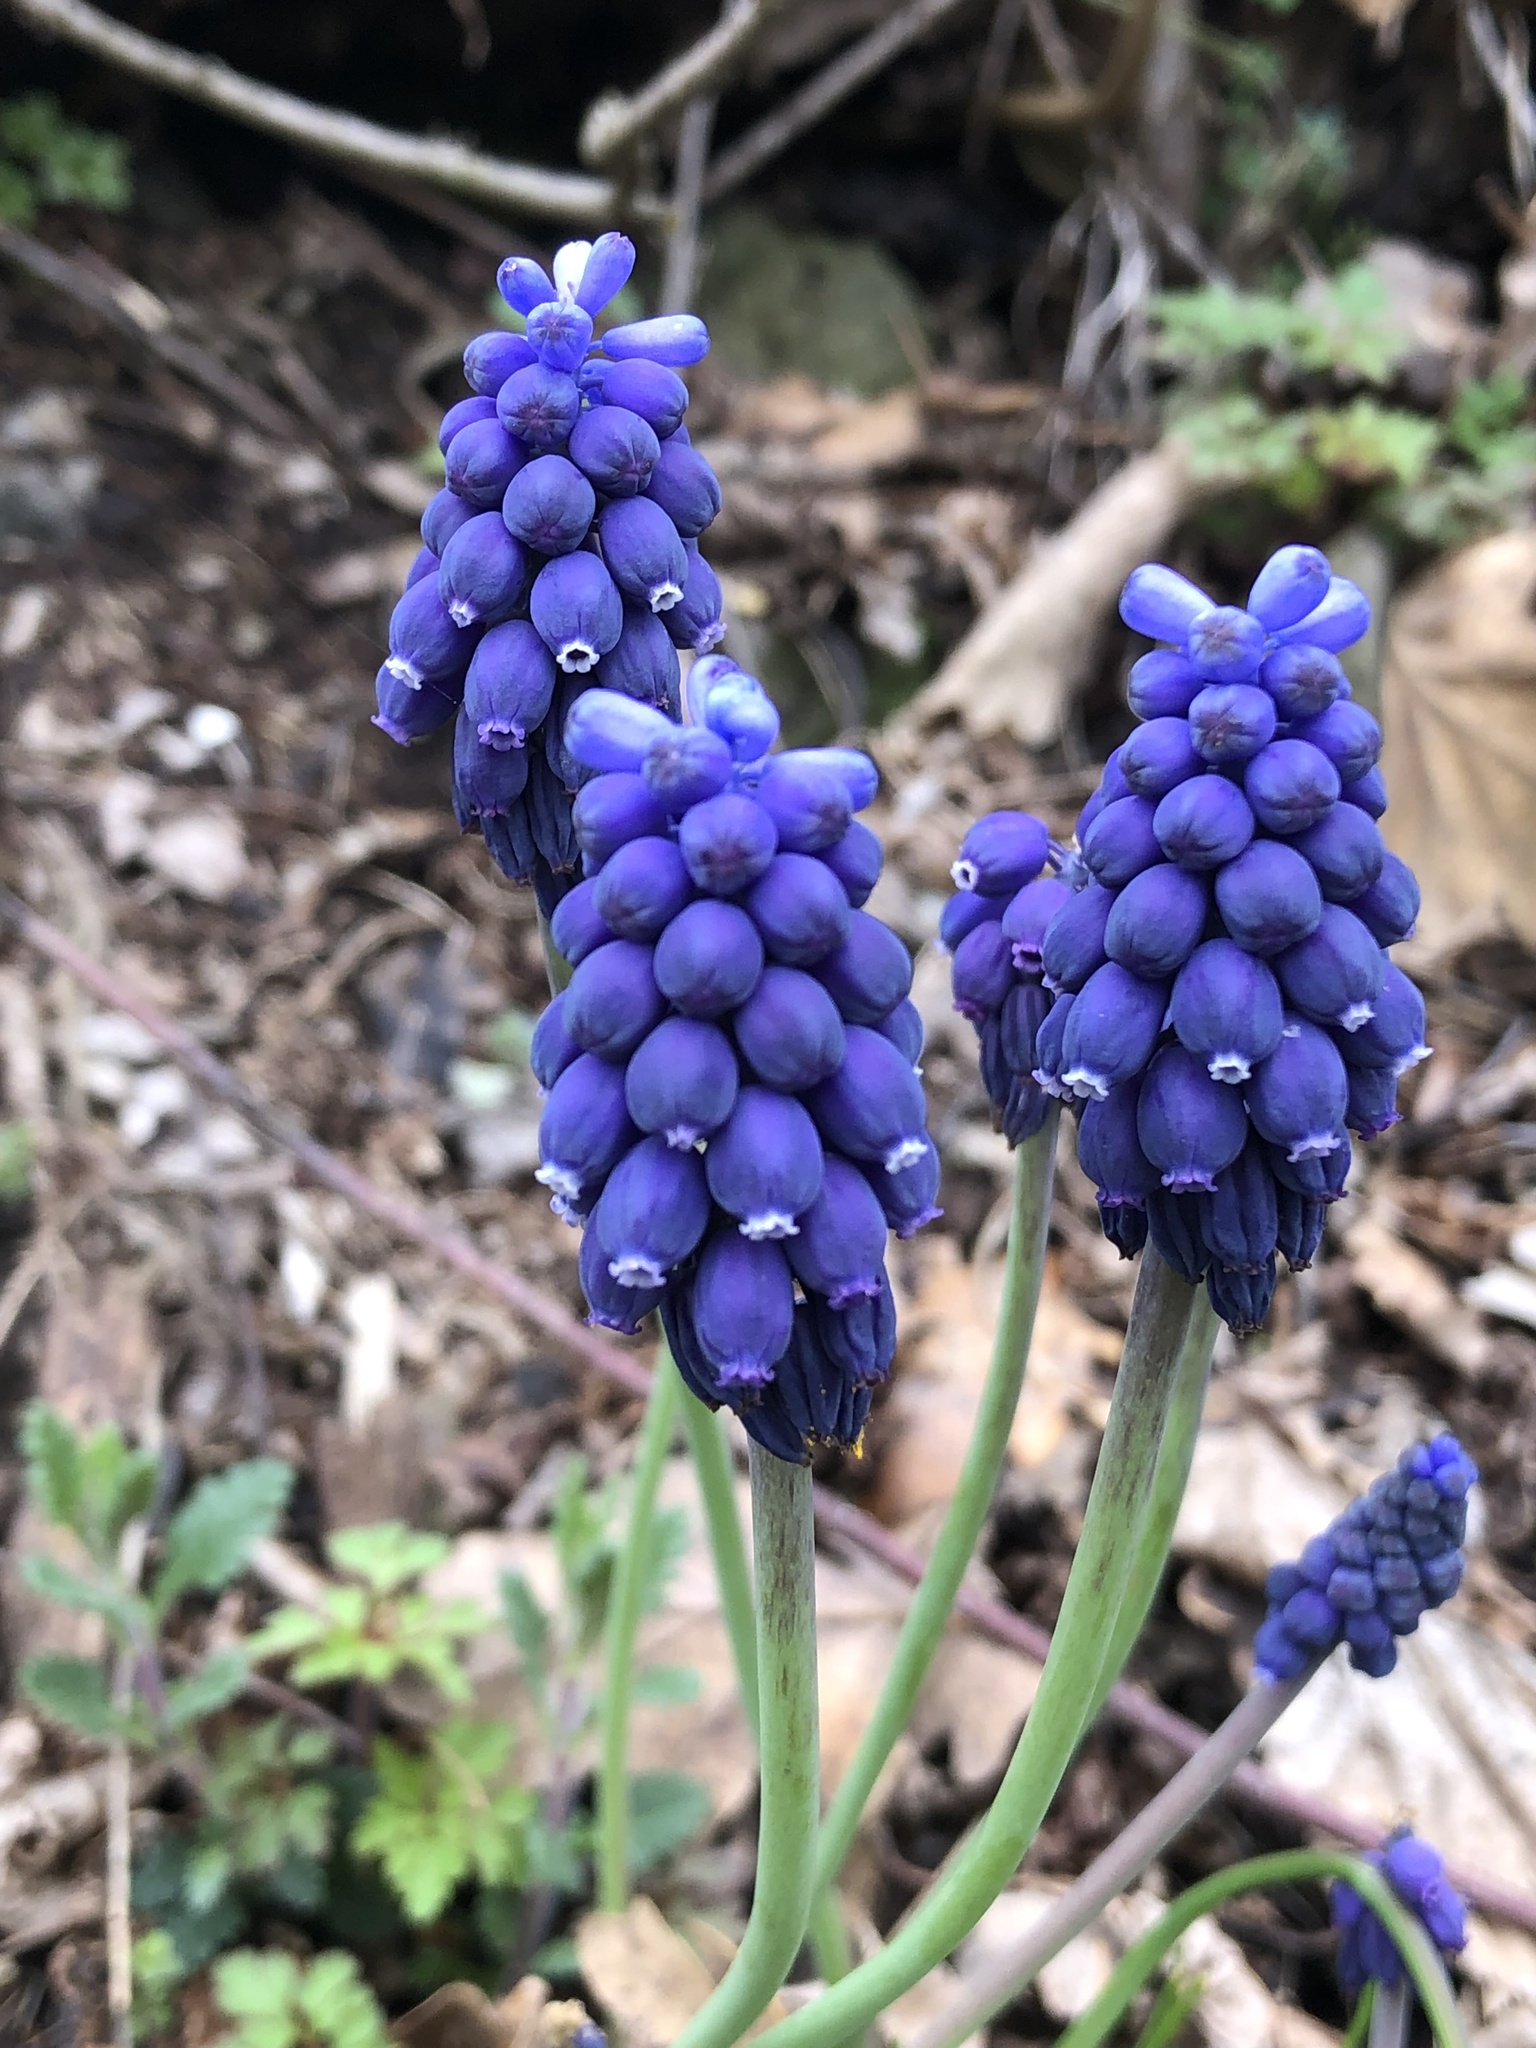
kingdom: Plantae
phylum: Tracheophyta
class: Liliopsida
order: Asparagales
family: Asparagaceae
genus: Muscari
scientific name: Muscari neglectum
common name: Grape-hyacinth
